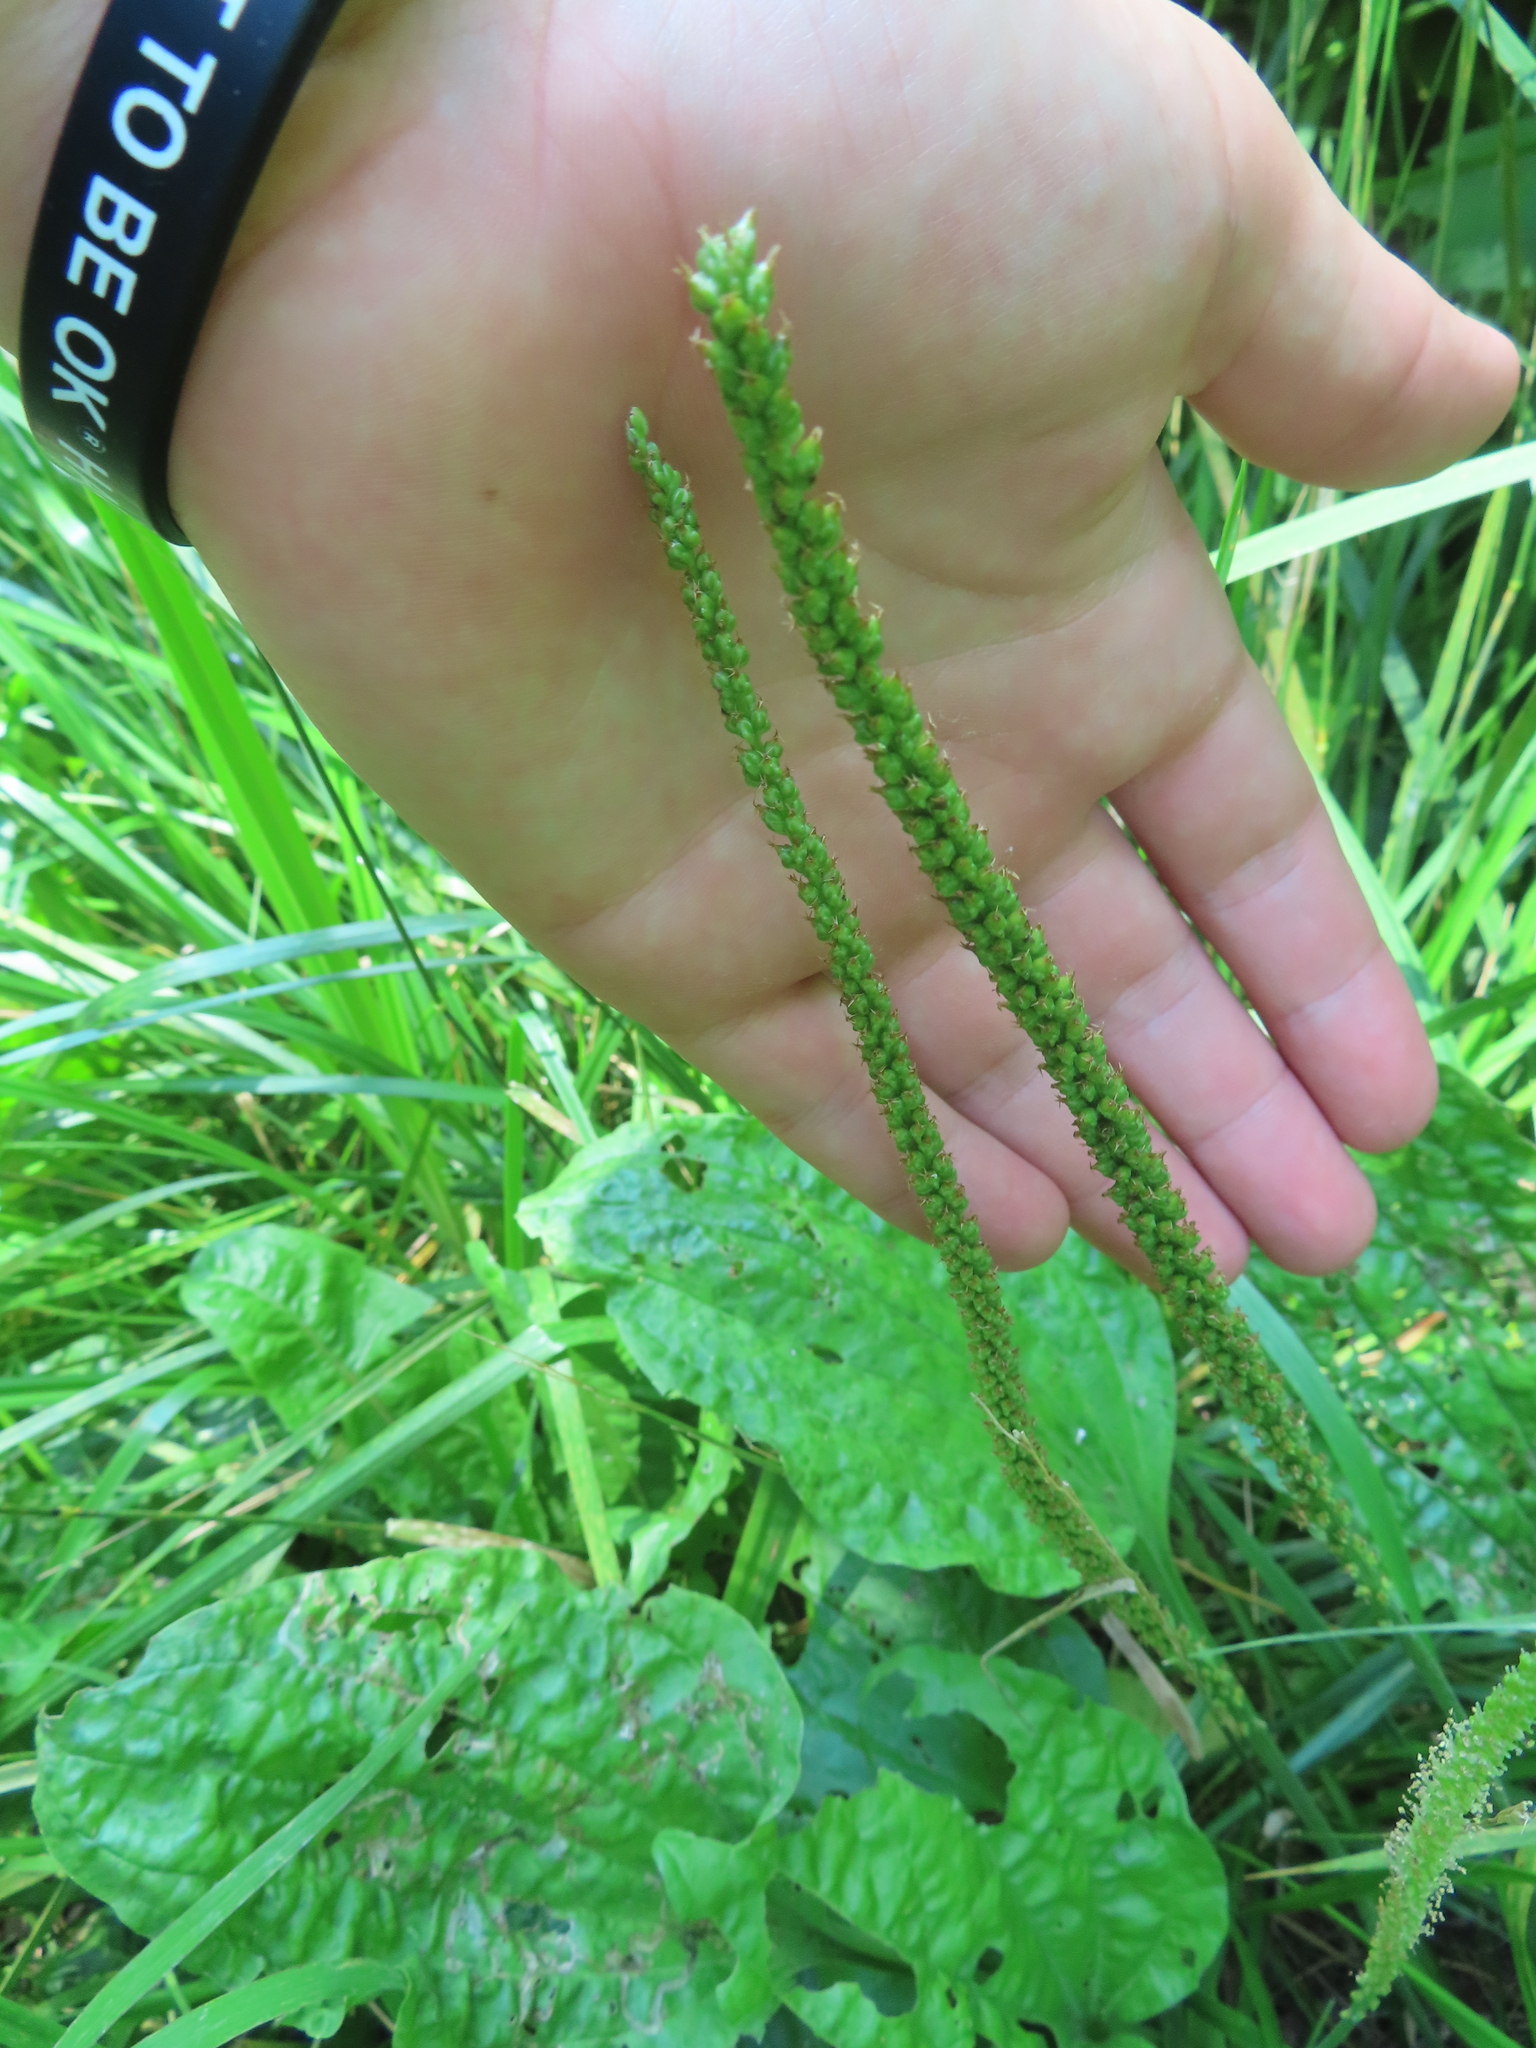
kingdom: Plantae
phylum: Tracheophyta
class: Magnoliopsida
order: Lamiales
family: Plantaginaceae
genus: Plantago
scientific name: Plantago rugelii
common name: American plantain
